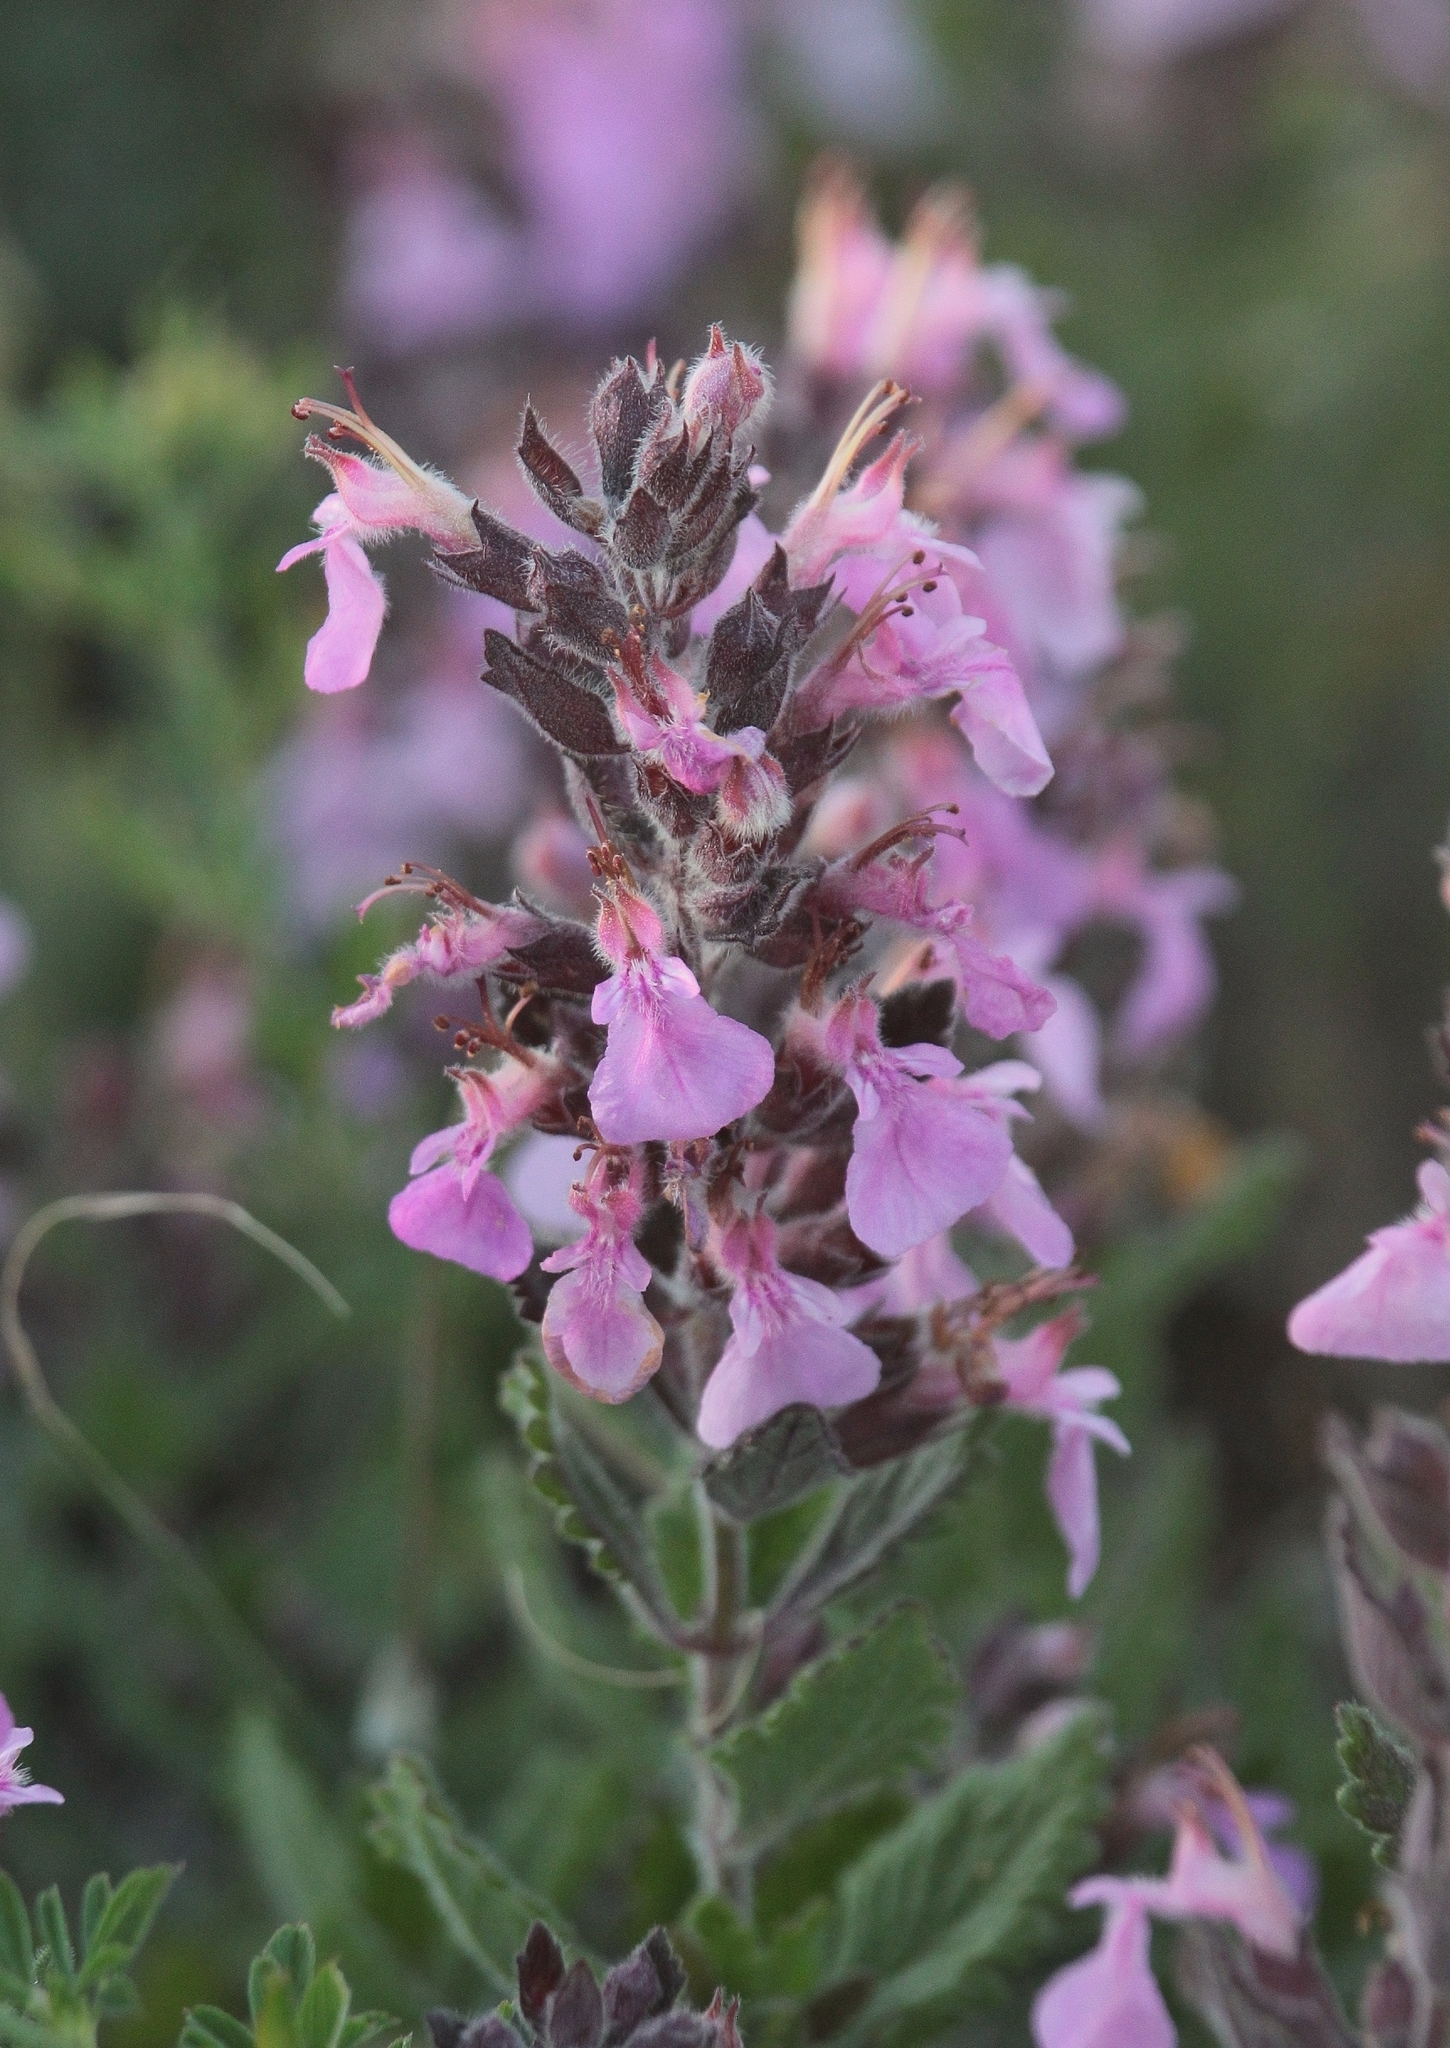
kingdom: Plantae
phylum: Tracheophyta
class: Magnoliopsida
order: Lamiales
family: Lamiaceae
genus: Teucrium
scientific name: Teucrium chamaedrys
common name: Wall germander
